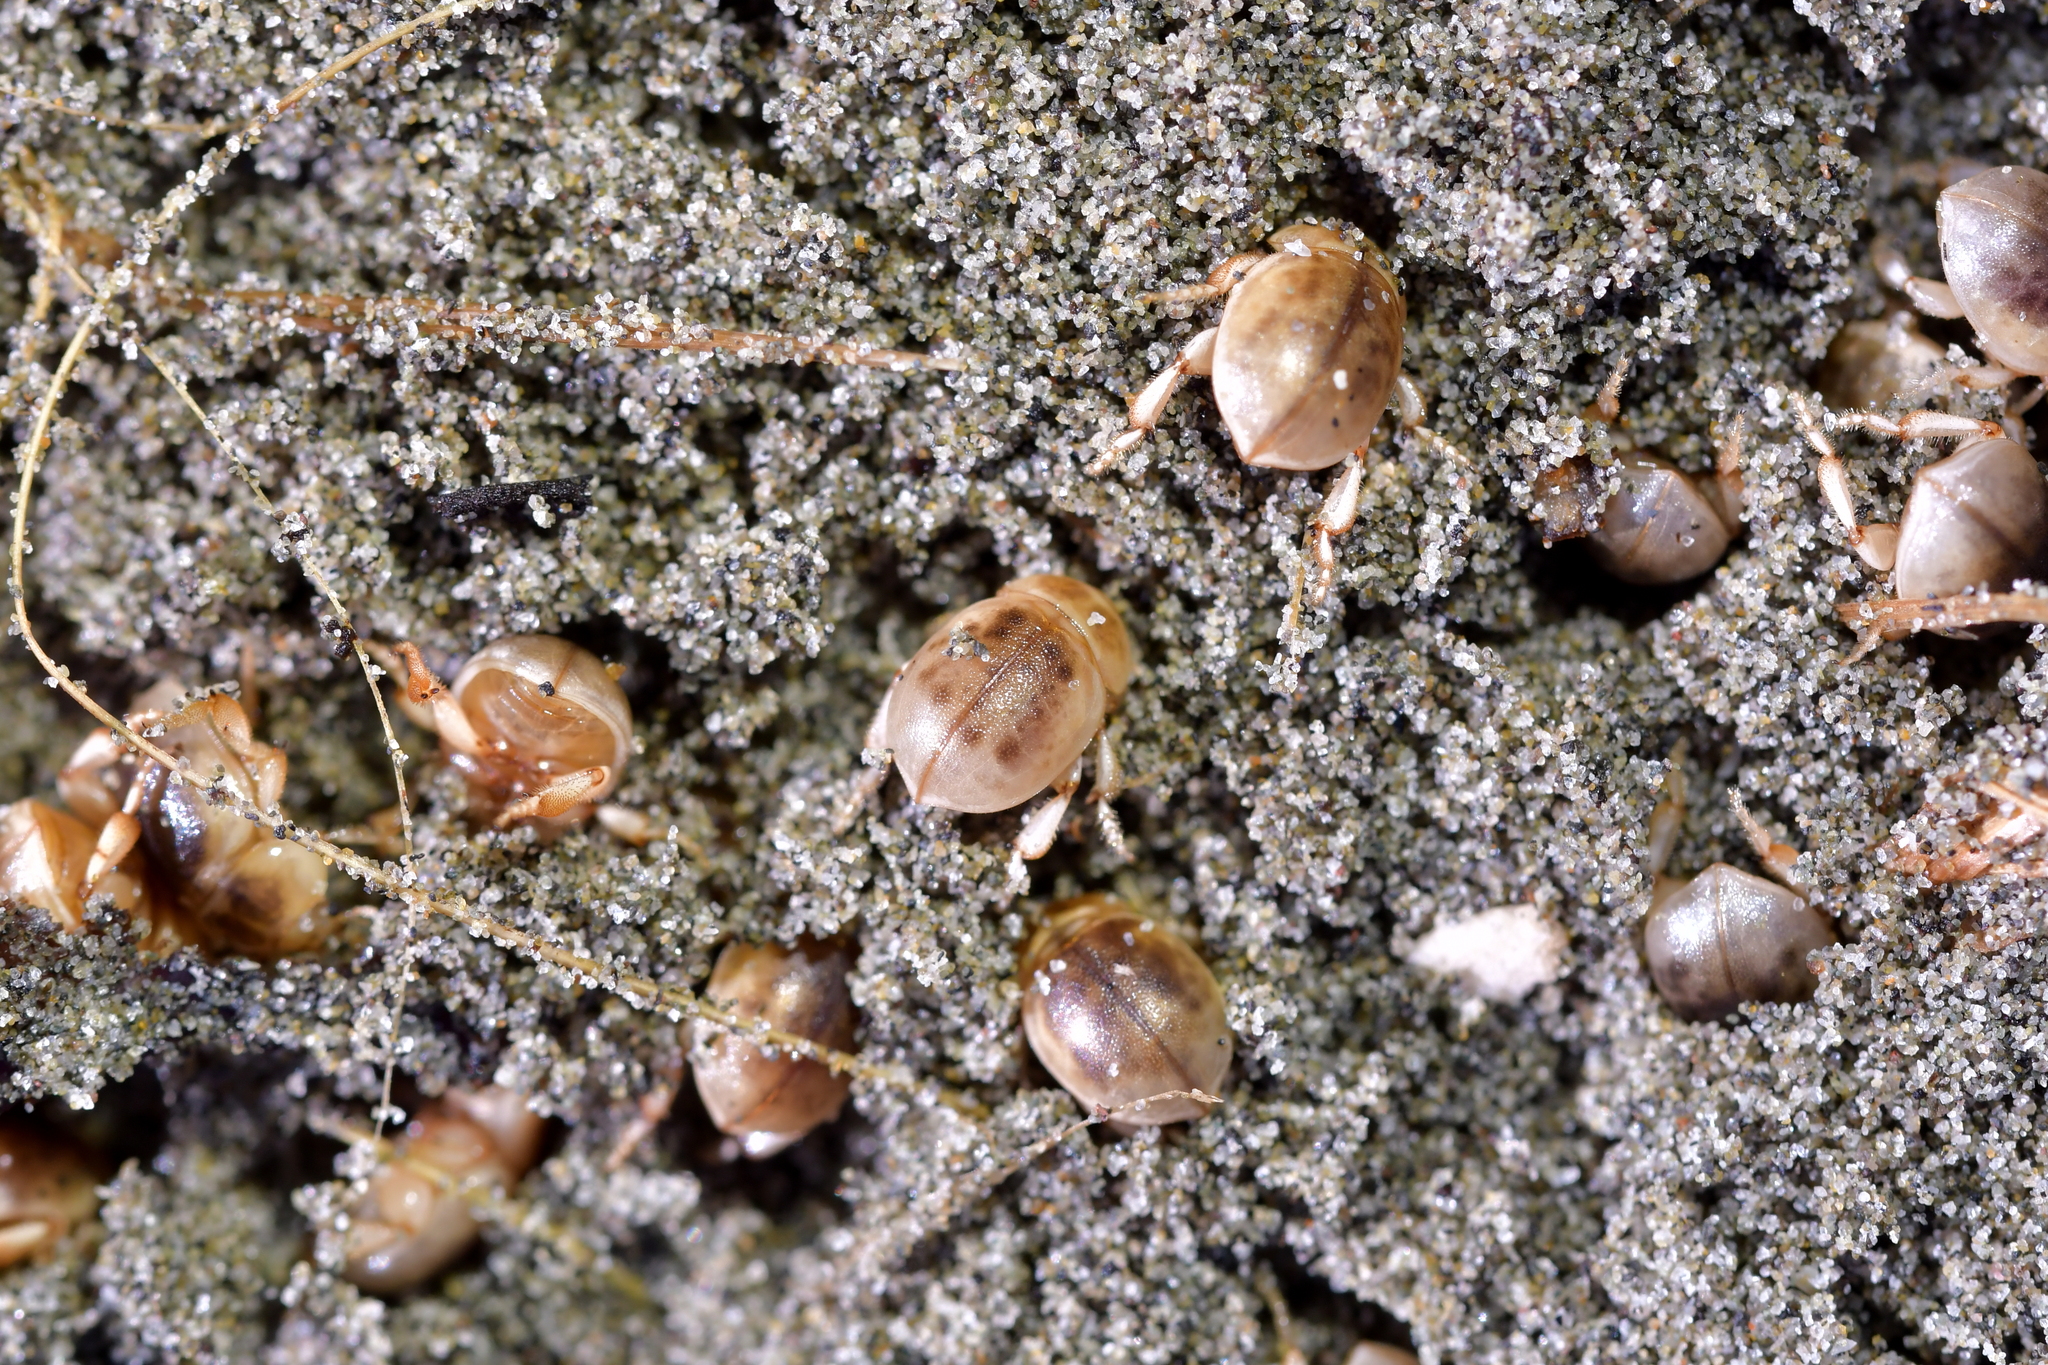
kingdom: Animalia
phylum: Arthropoda
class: Insecta
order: Coleoptera
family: Tenebrionidae
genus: Chaerodes
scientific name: Chaerodes trachyscelides
